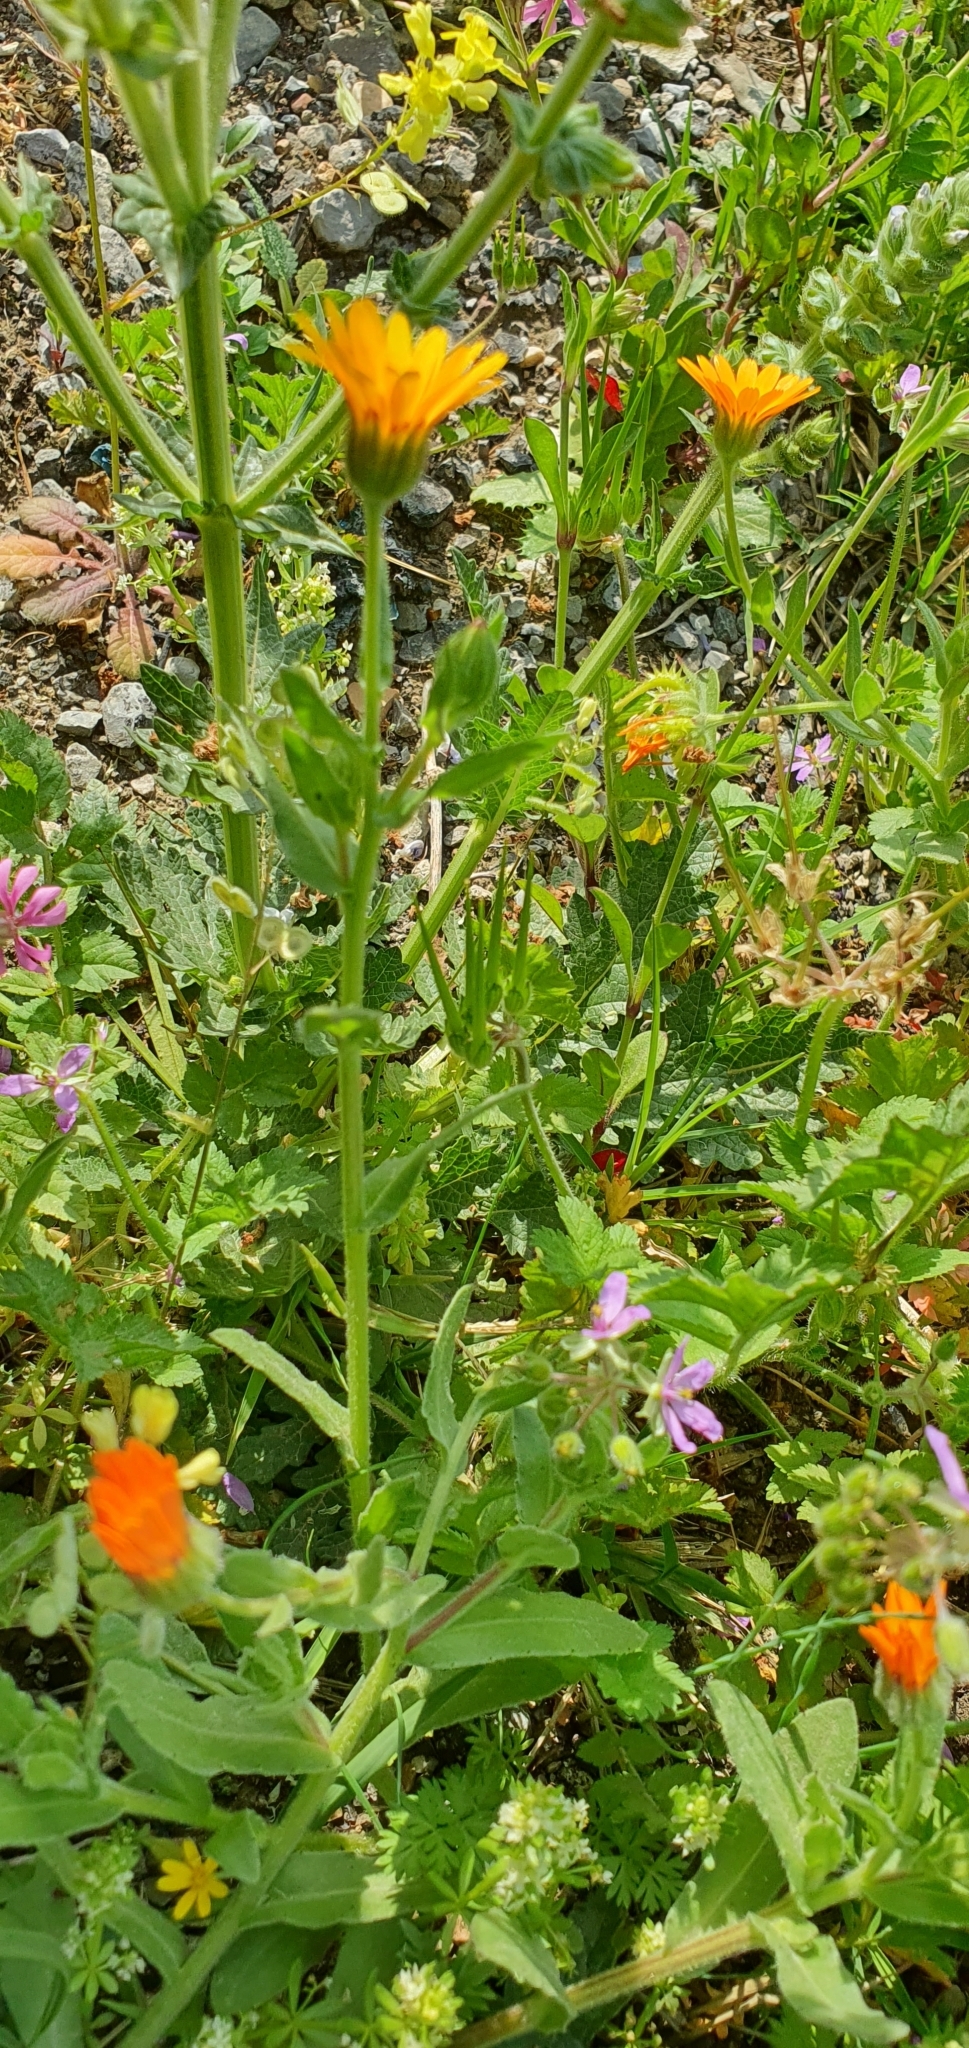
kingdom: Plantae
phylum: Tracheophyta
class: Magnoliopsida
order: Asterales
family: Asteraceae
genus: Calendula
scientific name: Calendula arvensis
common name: Field marigold
